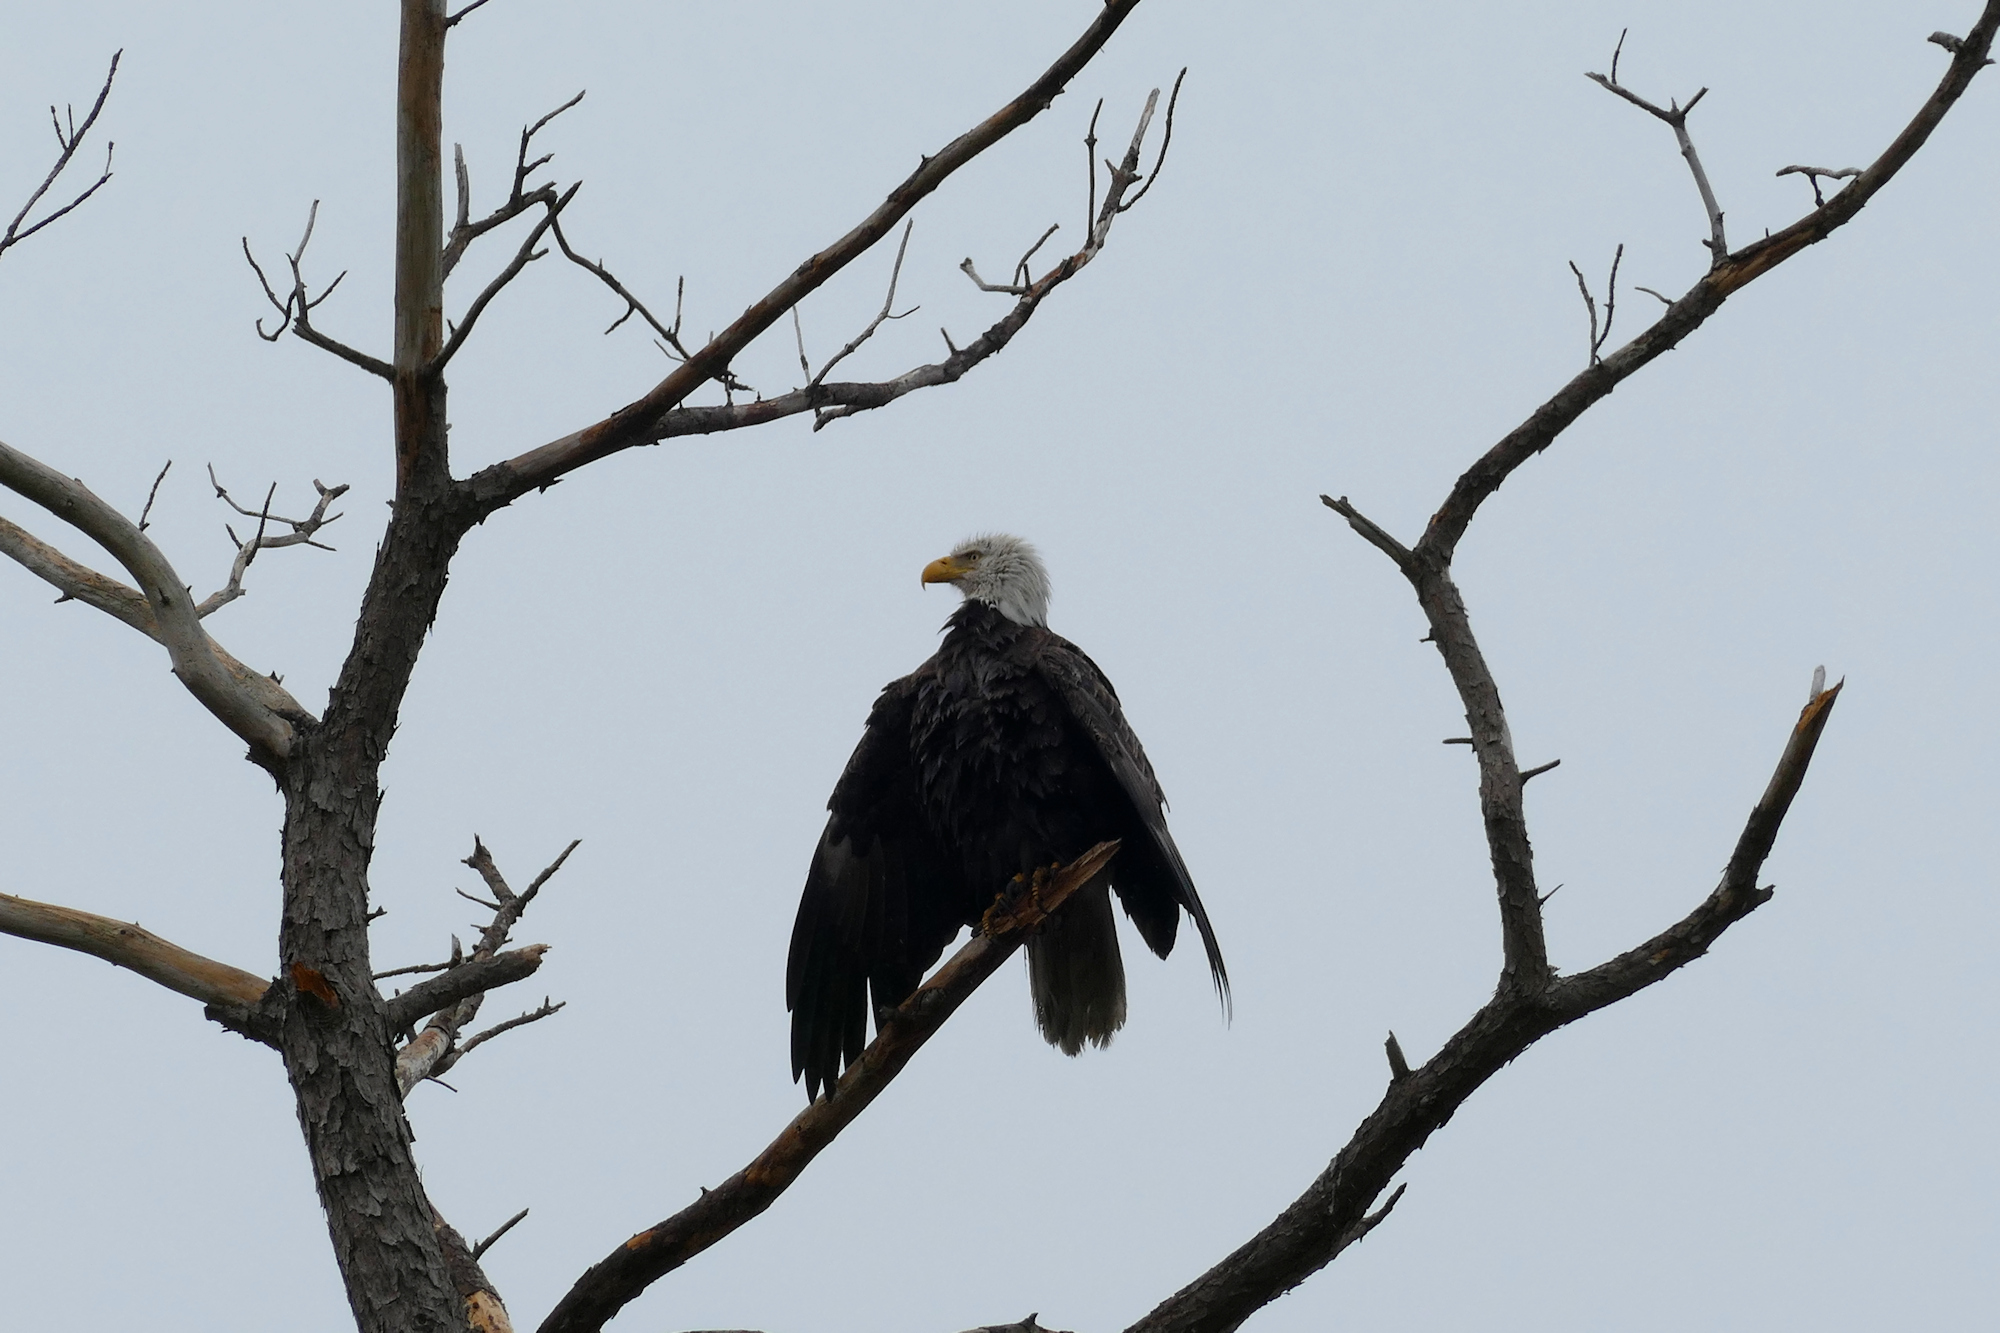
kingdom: Animalia
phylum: Chordata
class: Aves
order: Accipitriformes
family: Accipitridae
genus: Haliaeetus
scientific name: Haliaeetus leucocephalus
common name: Bald eagle
